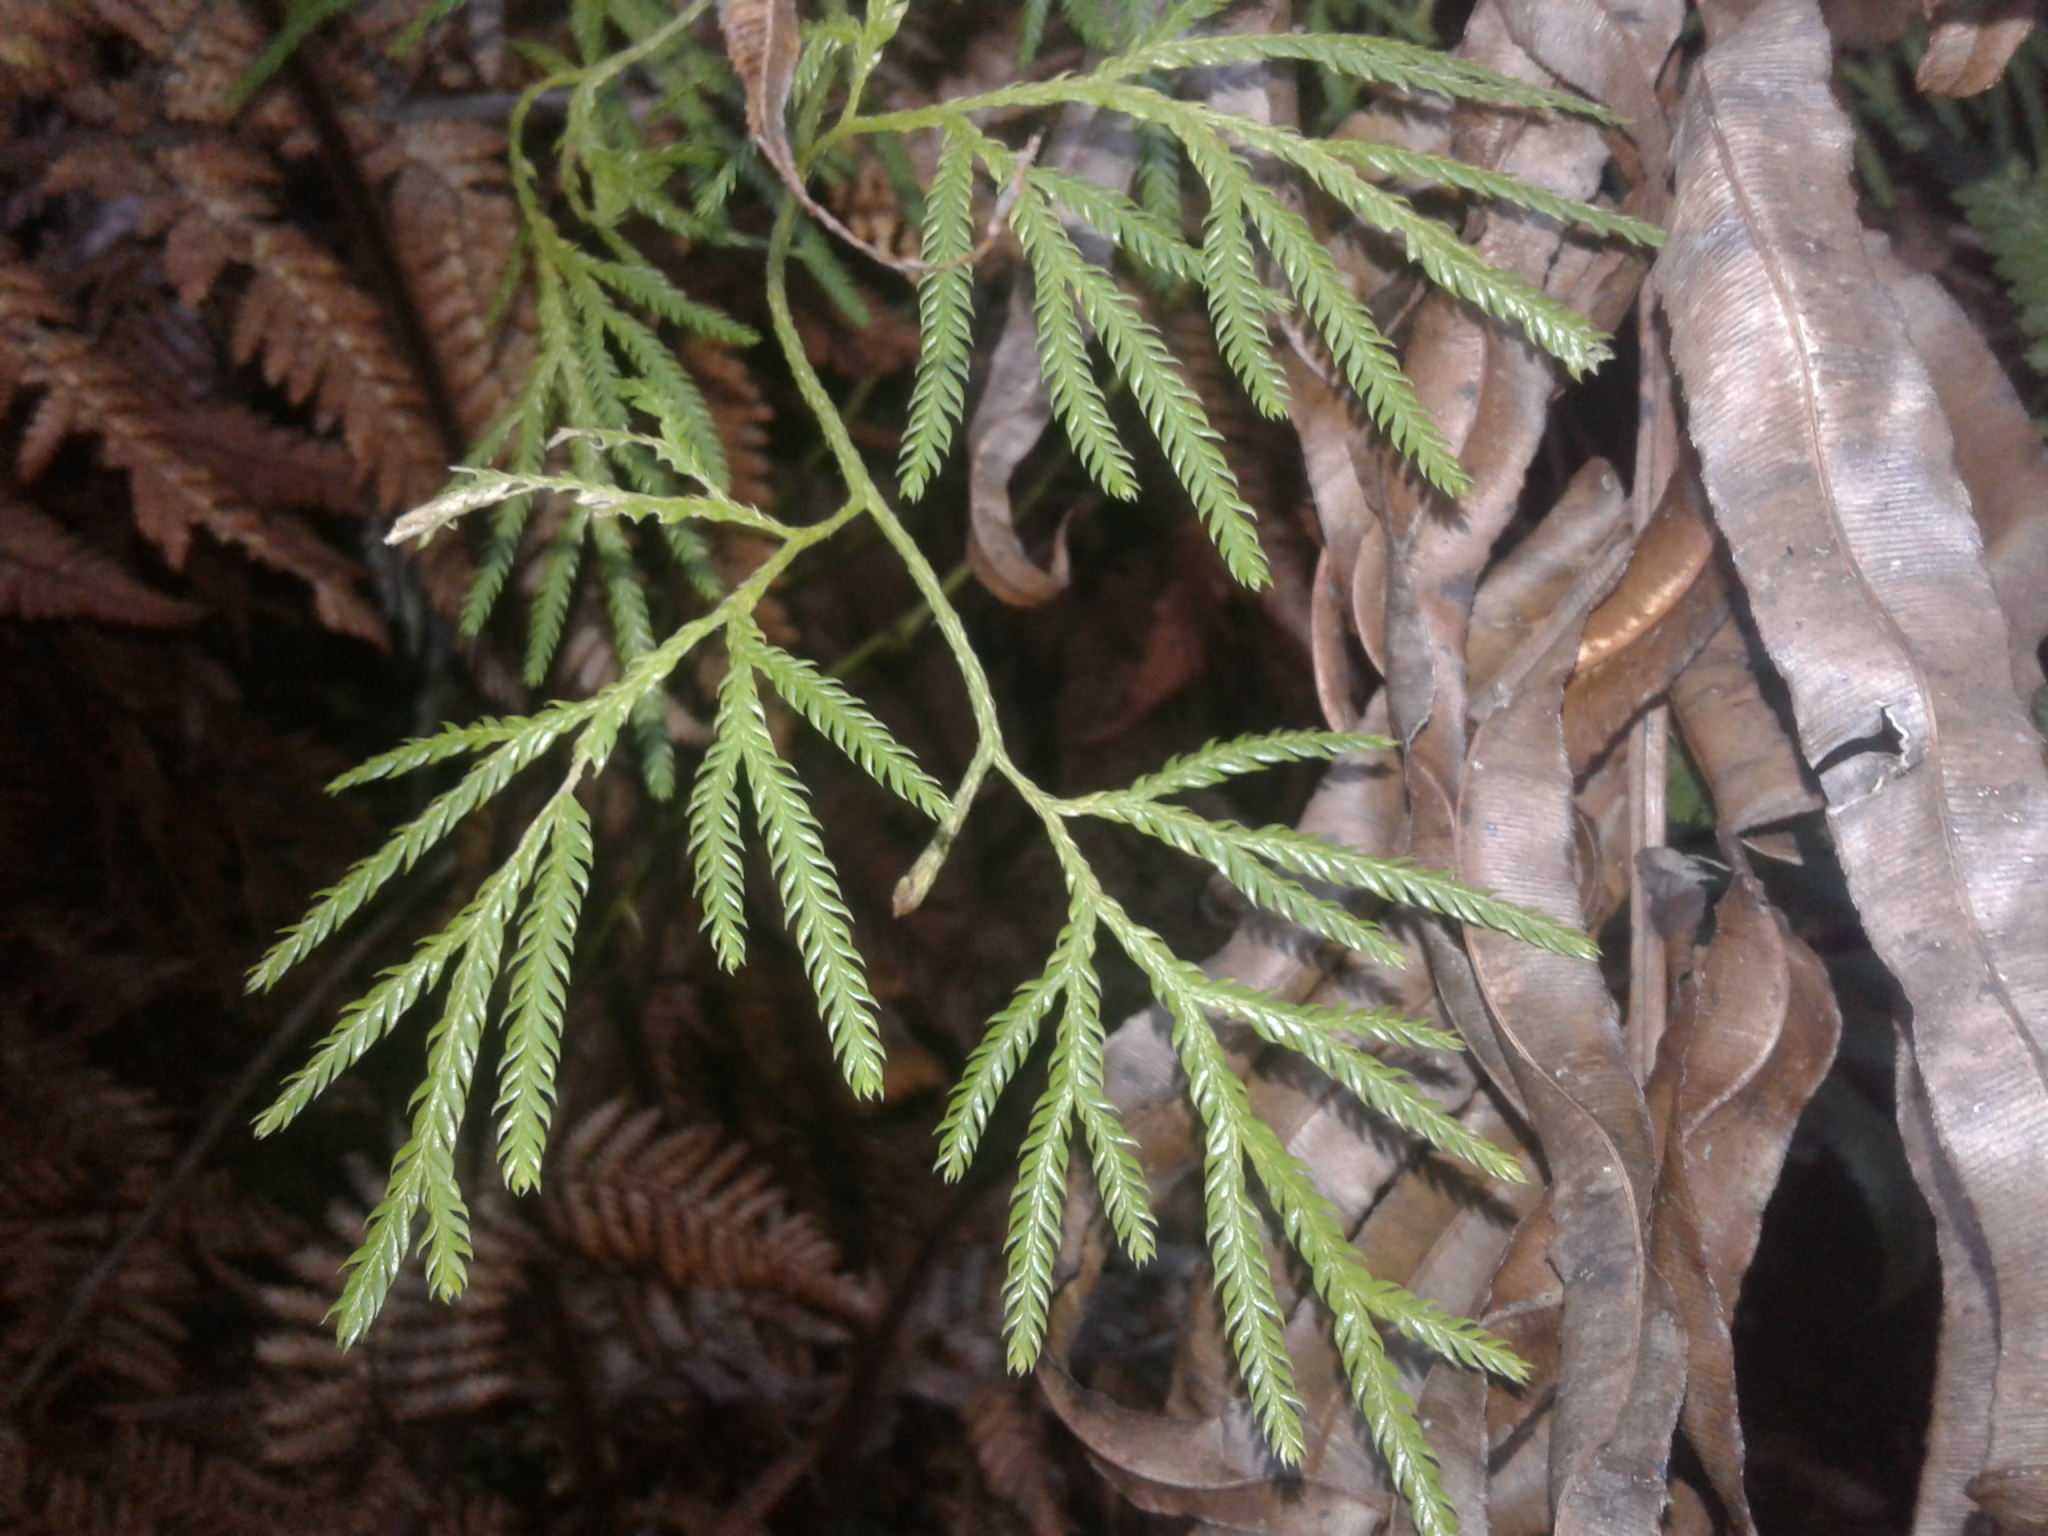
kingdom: Plantae
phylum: Tracheophyta
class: Lycopodiopsida
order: Lycopodiales
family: Lycopodiaceae
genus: Lycopodium
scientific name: Lycopodium volubile
